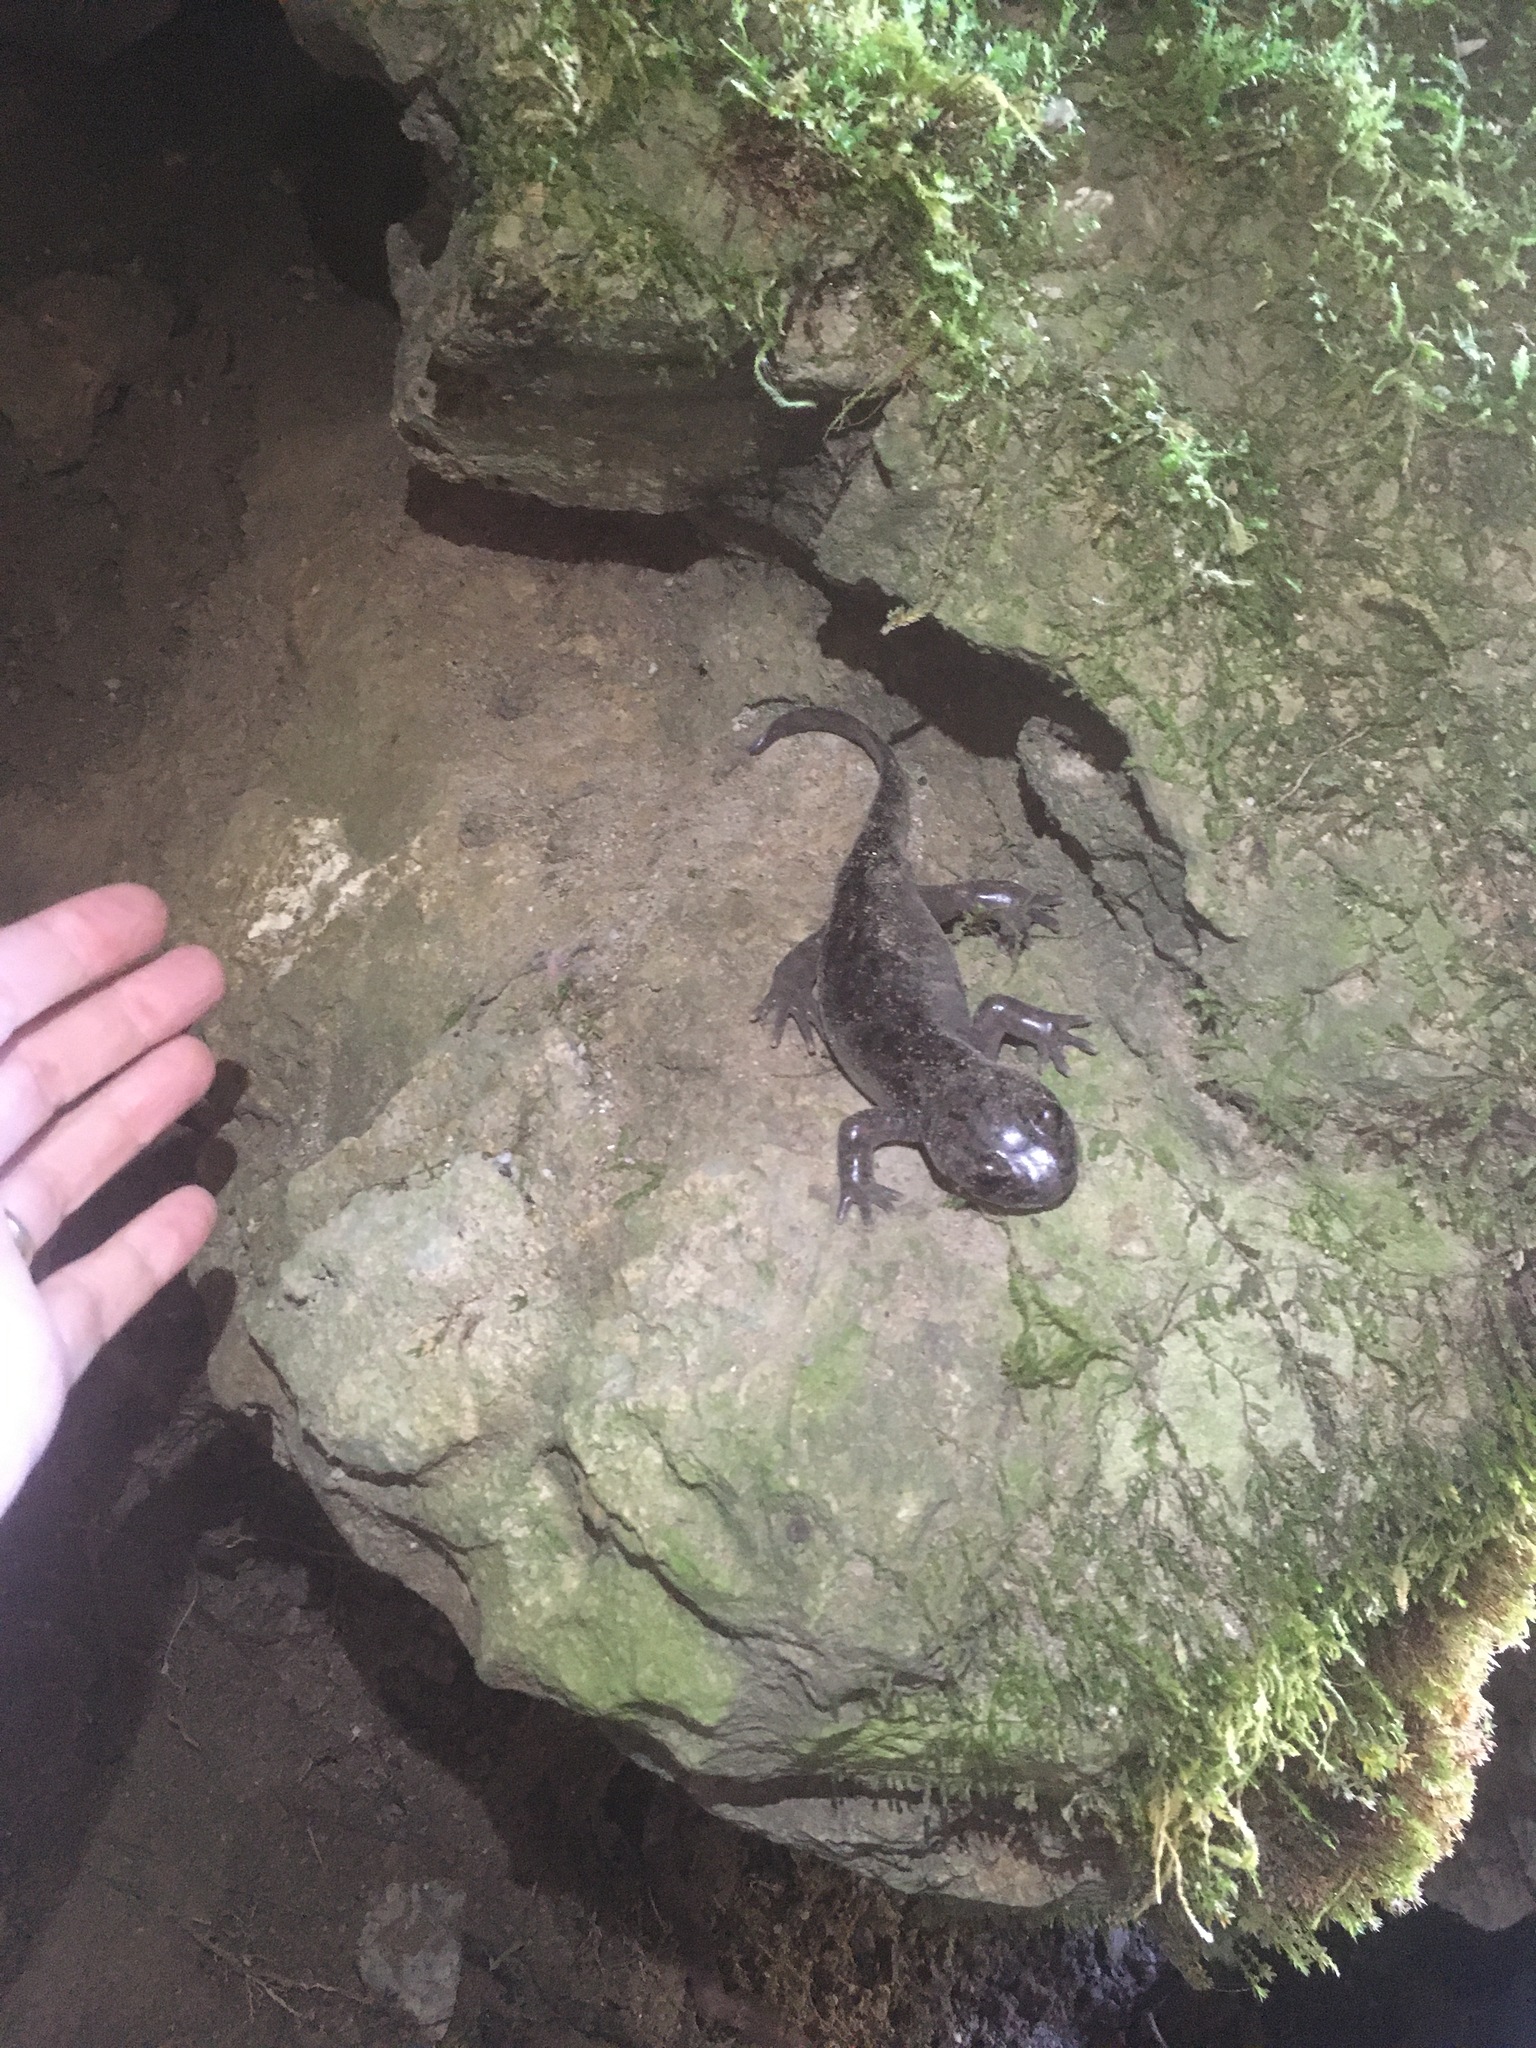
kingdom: Animalia
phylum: Chordata
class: Amphibia
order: Caudata
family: Ambystomatidae
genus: Dicamptodon
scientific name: Dicamptodon tenebrosus
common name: Coastal giant salamander
